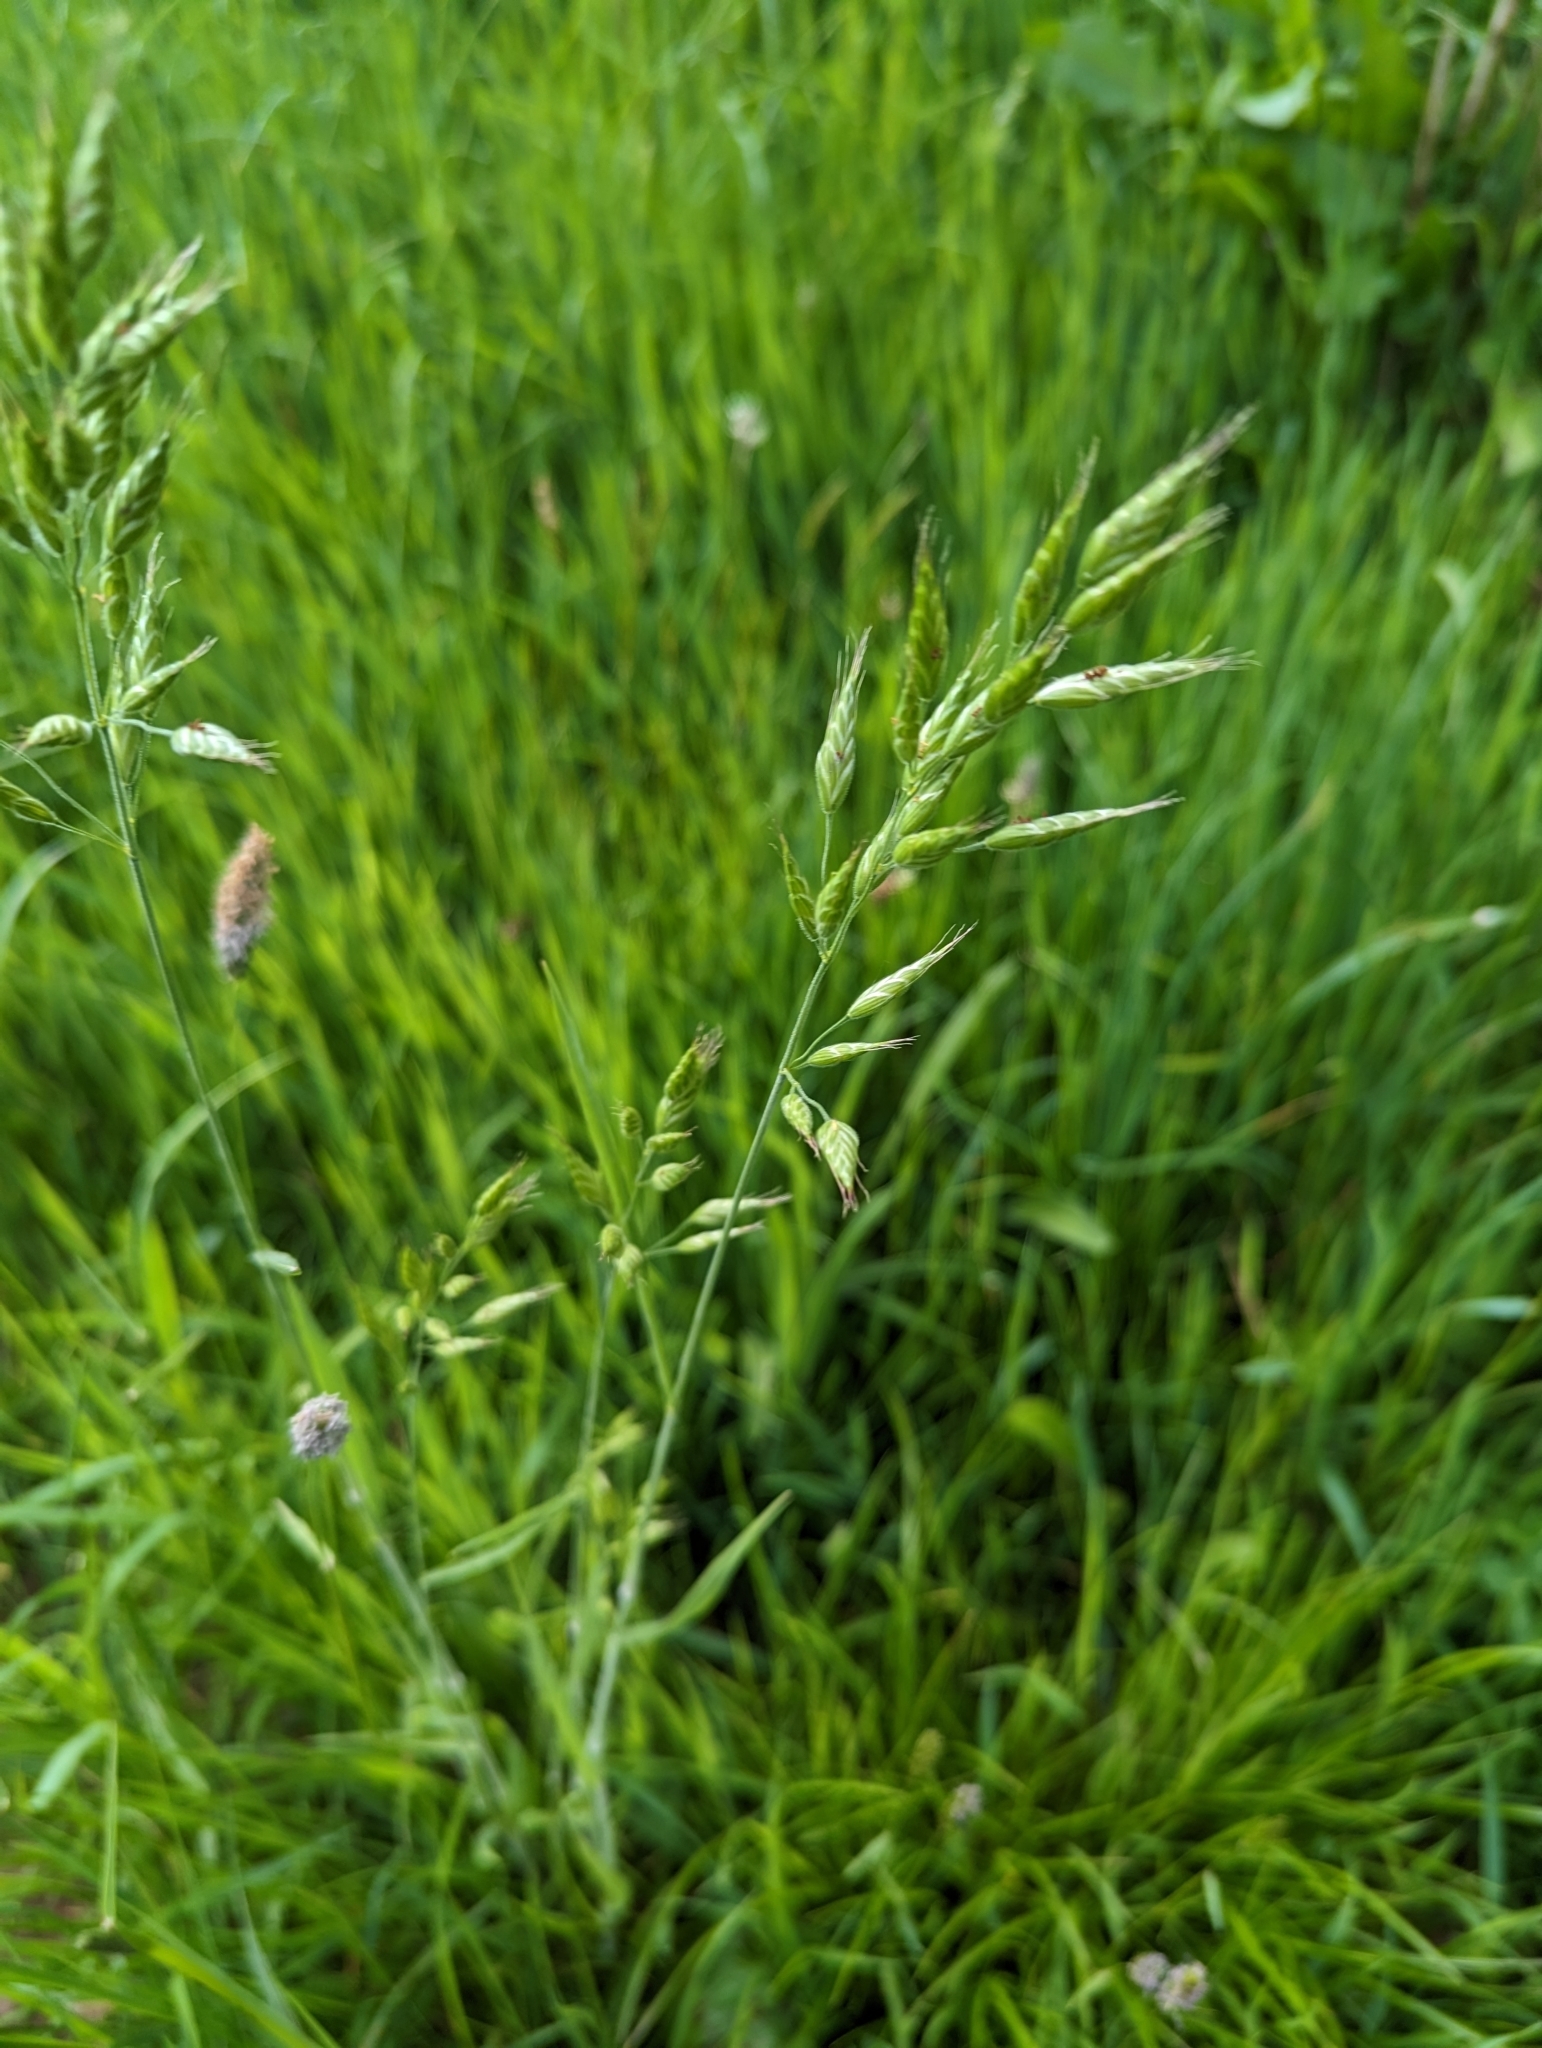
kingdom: Plantae
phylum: Tracheophyta
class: Liliopsida
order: Poales
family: Poaceae
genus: Bromus
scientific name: Bromus hordeaceus
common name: Soft brome
